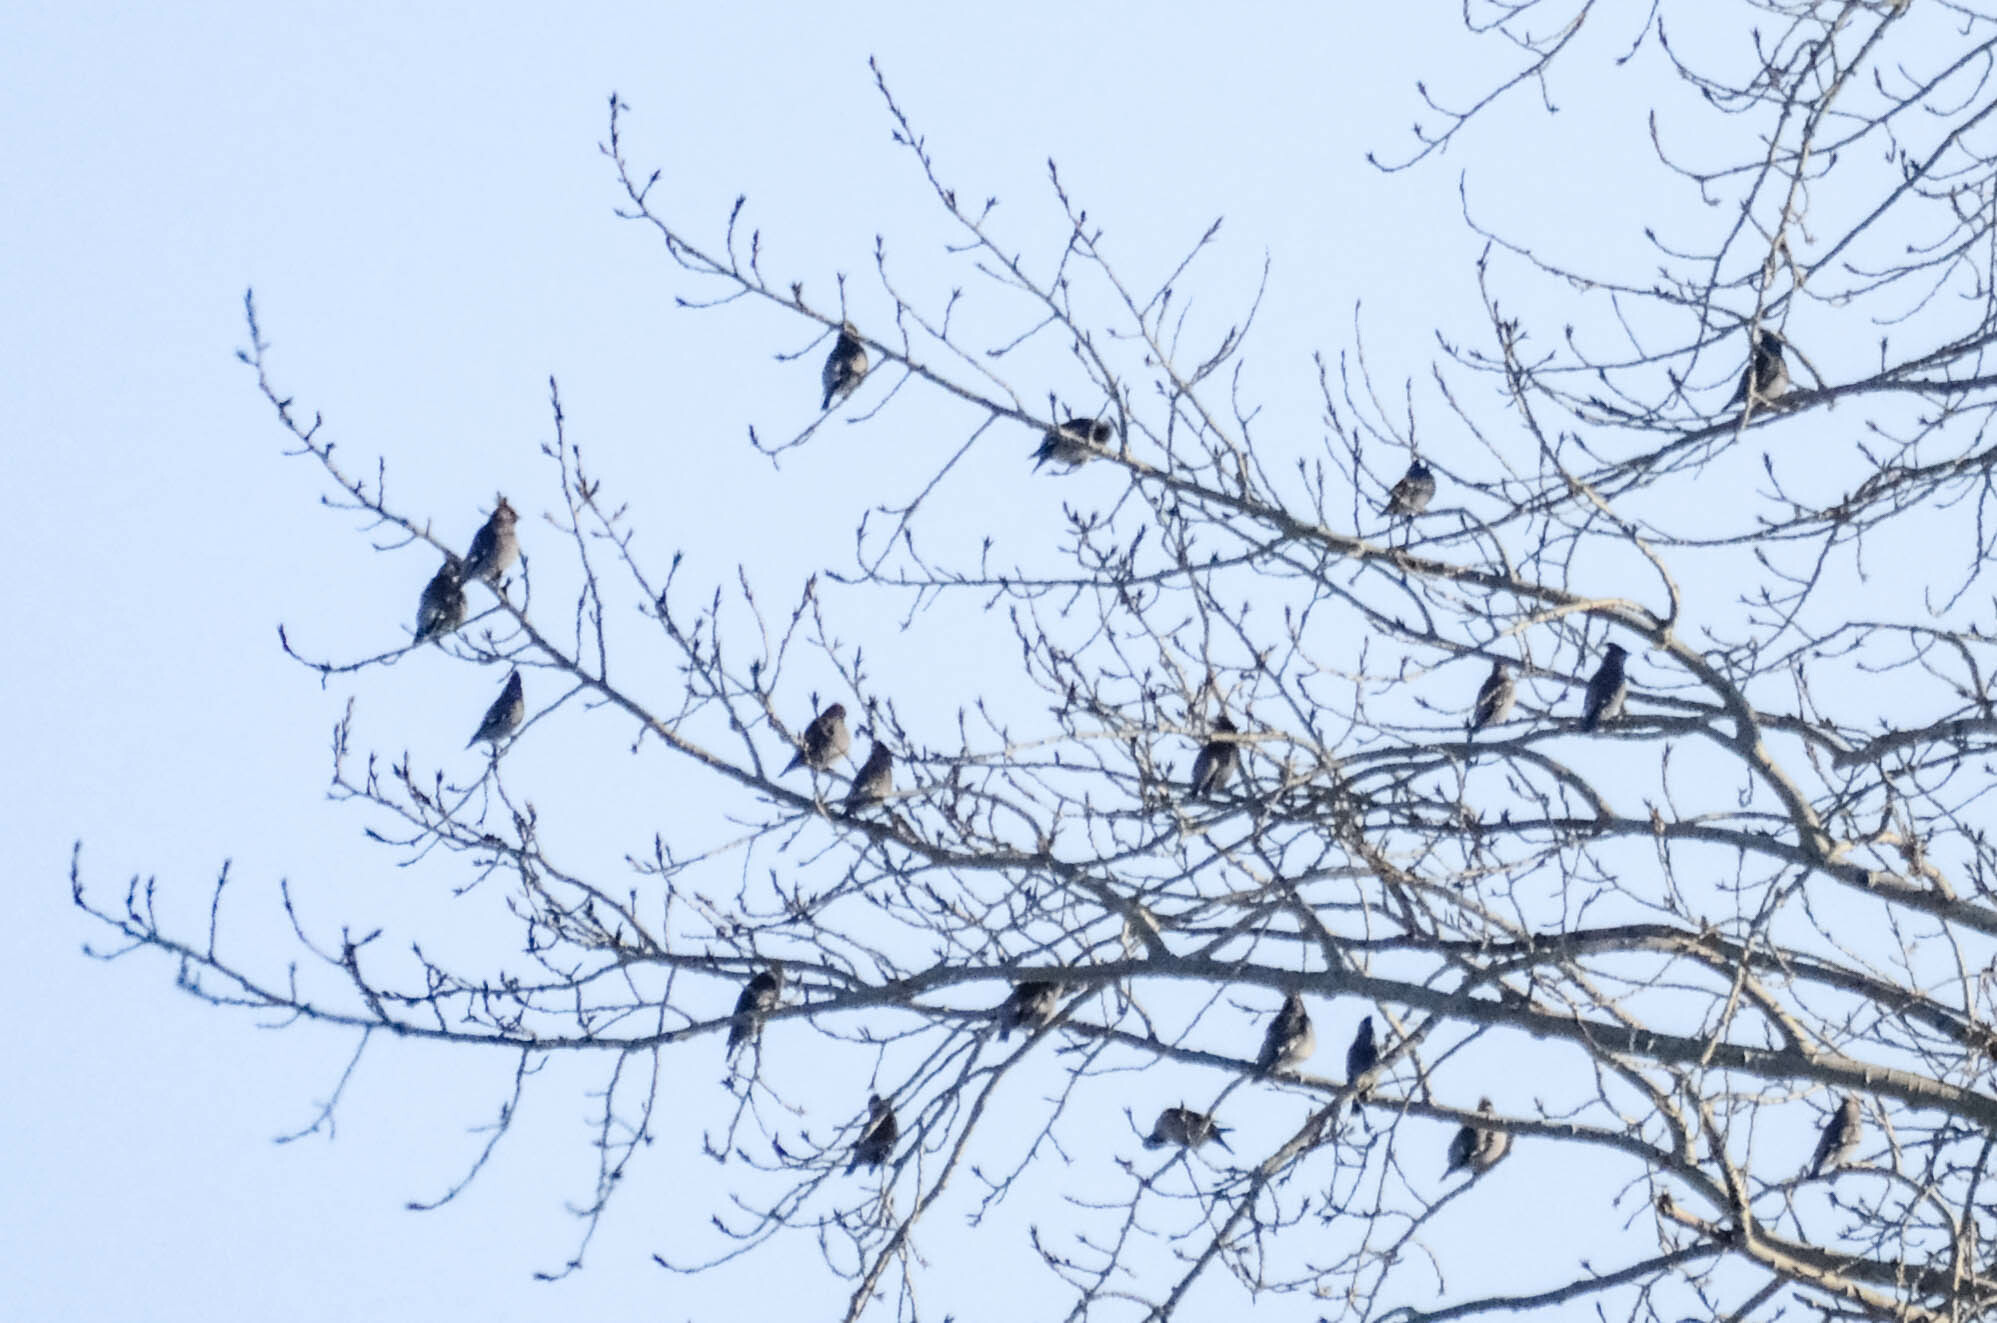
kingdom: Animalia
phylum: Chordata
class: Aves
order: Passeriformes
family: Bombycillidae
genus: Bombycilla
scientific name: Bombycilla garrulus
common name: Bohemian waxwing
